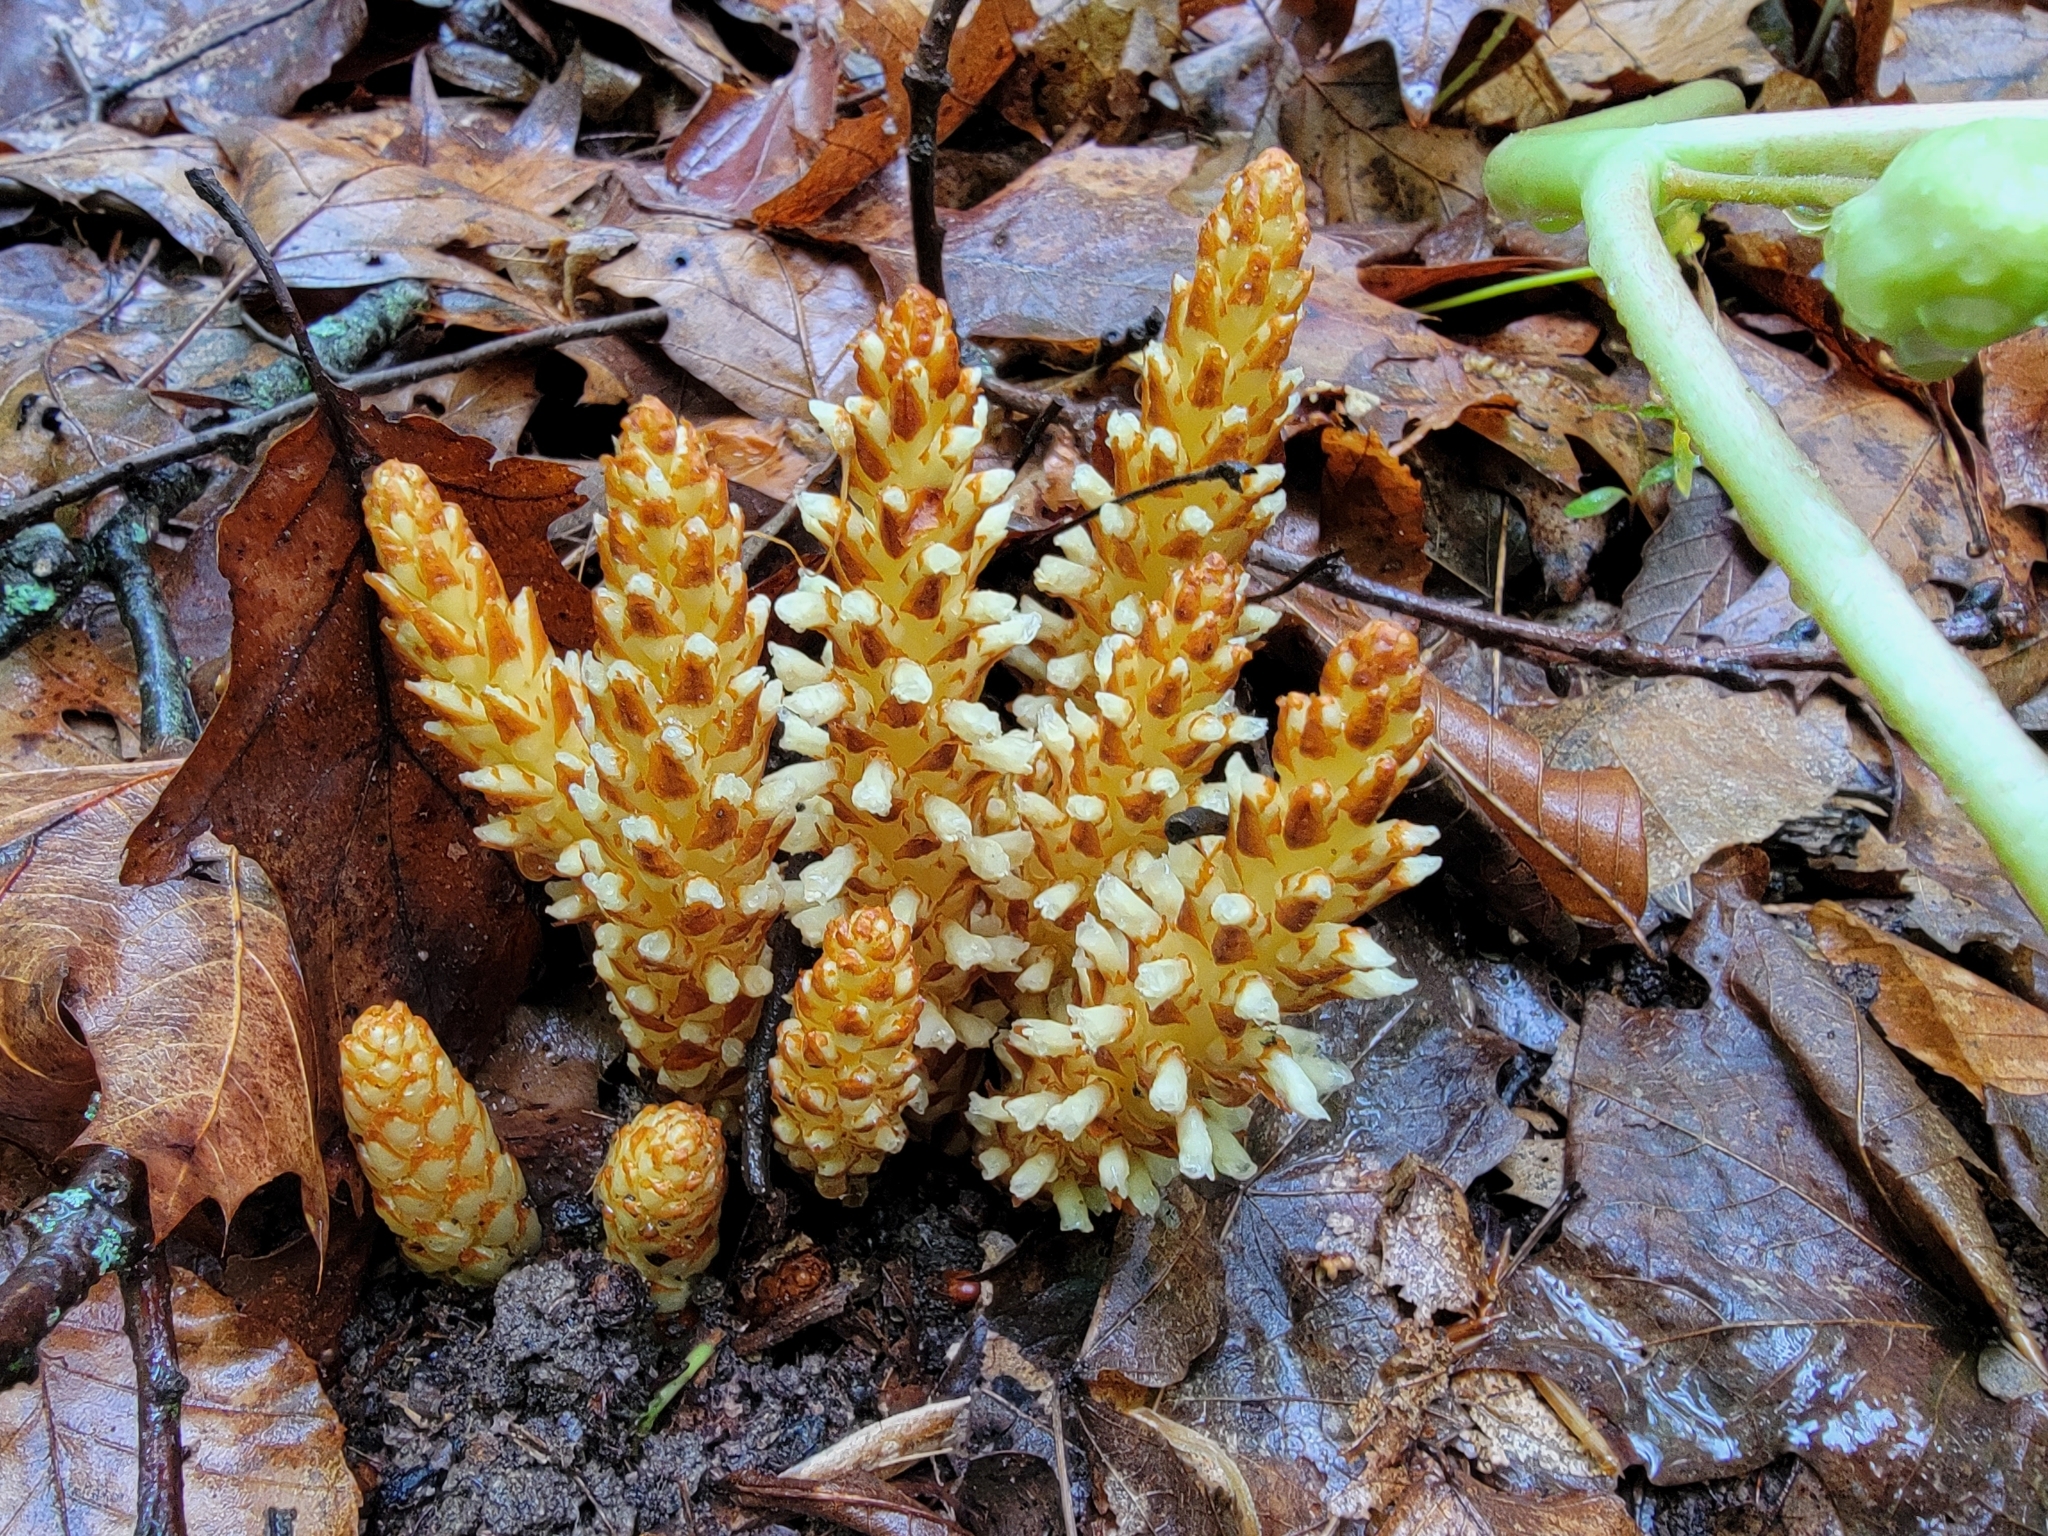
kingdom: Plantae
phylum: Tracheophyta
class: Magnoliopsida
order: Lamiales
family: Orobanchaceae
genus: Conopholis
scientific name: Conopholis americana
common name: American cancer-root
